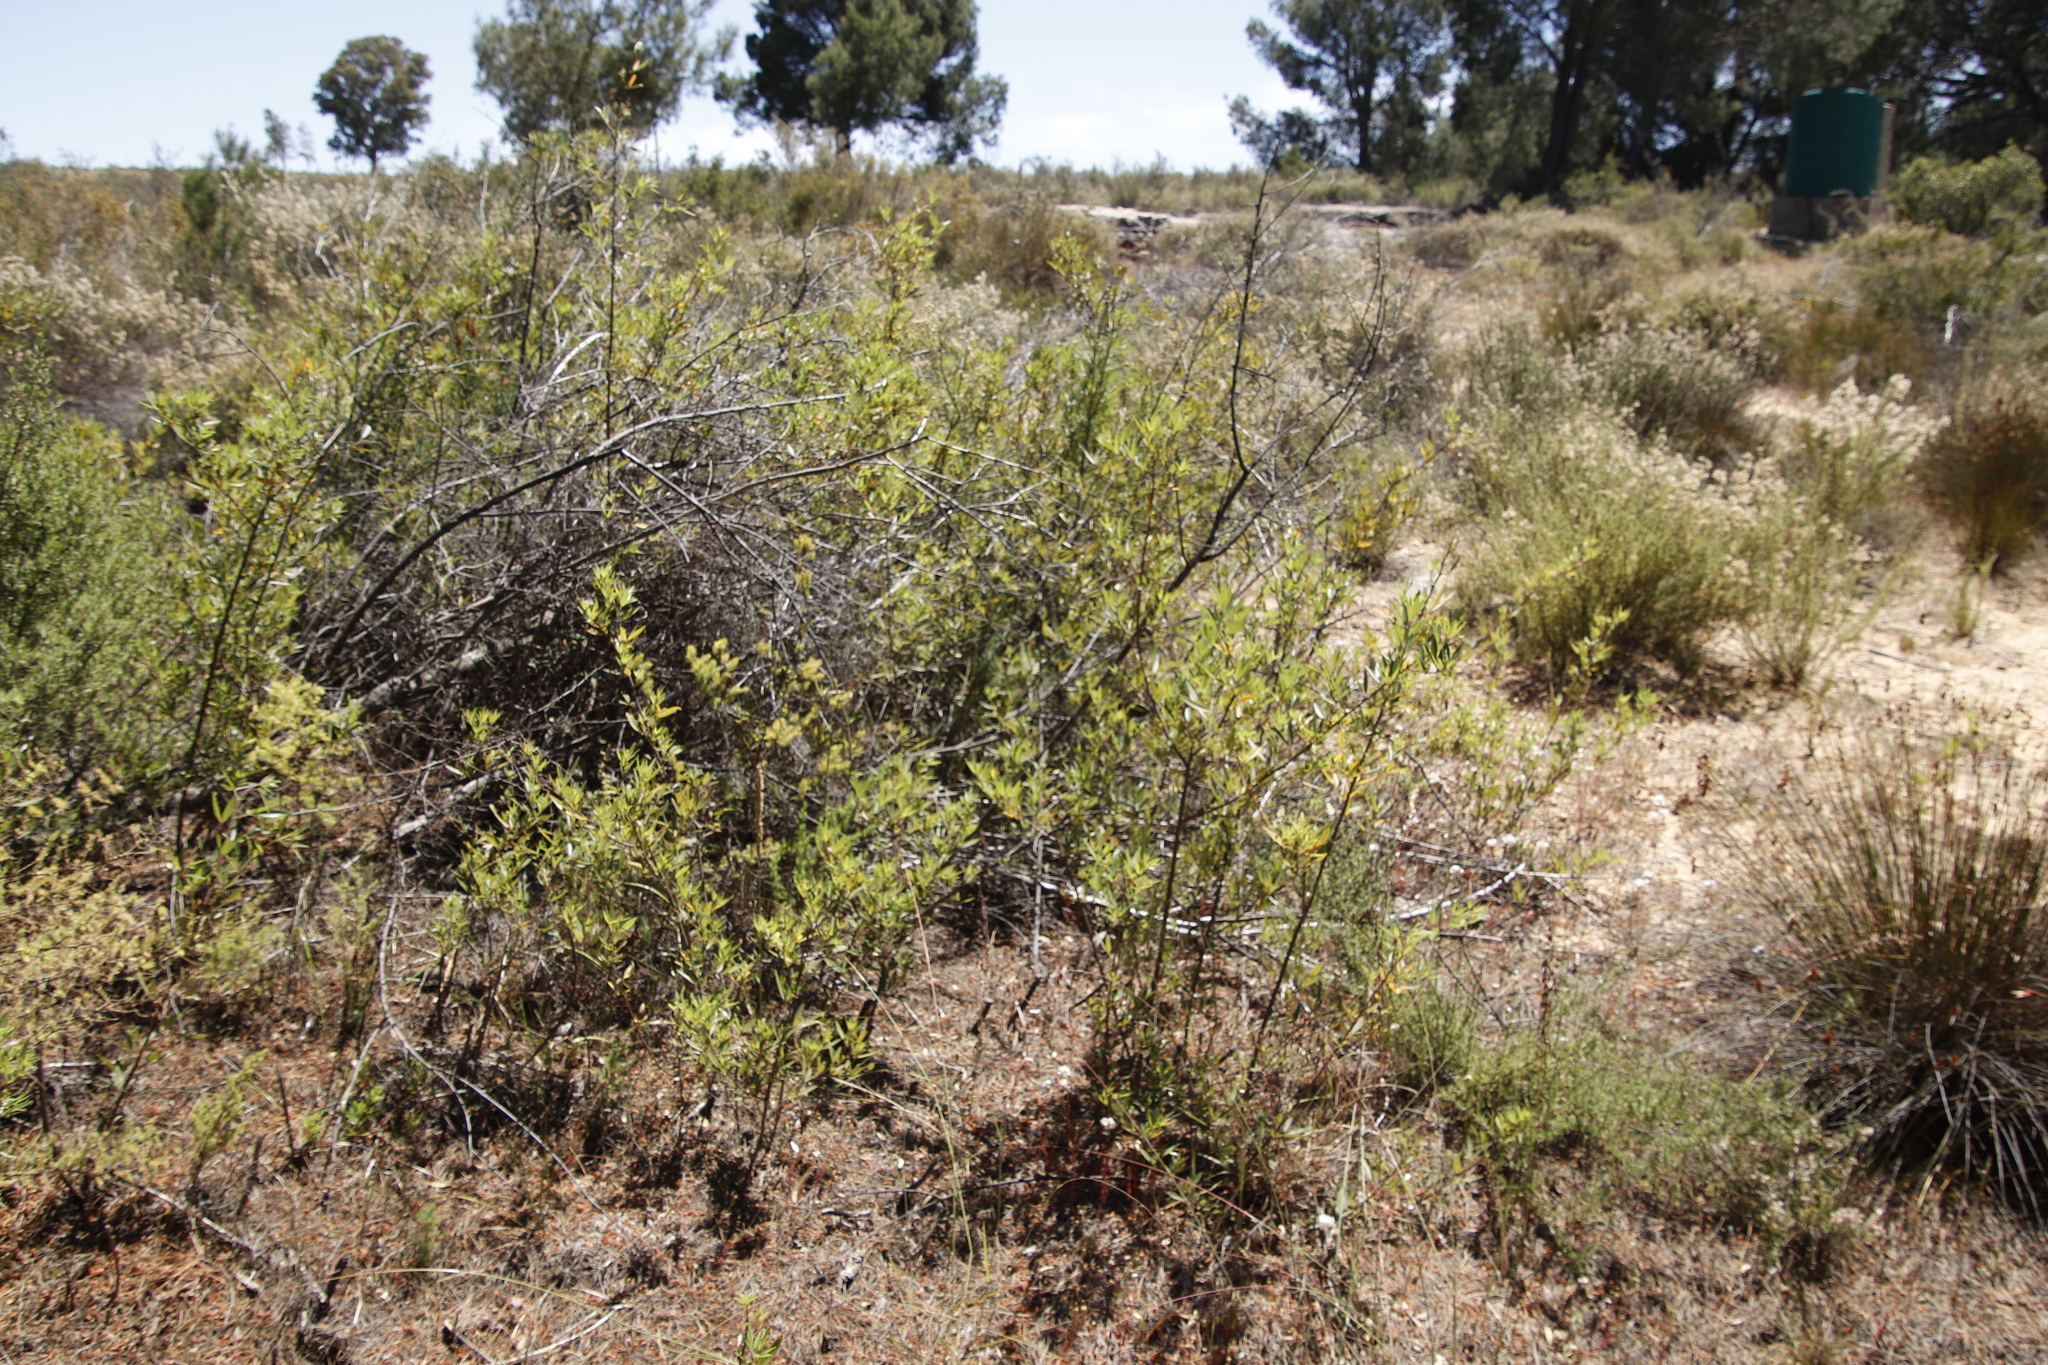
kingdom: Plantae
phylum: Tracheophyta
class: Magnoliopsida
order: Sapindales
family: Anacardiaceae
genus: Searsia
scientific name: Searsia angustifolia
